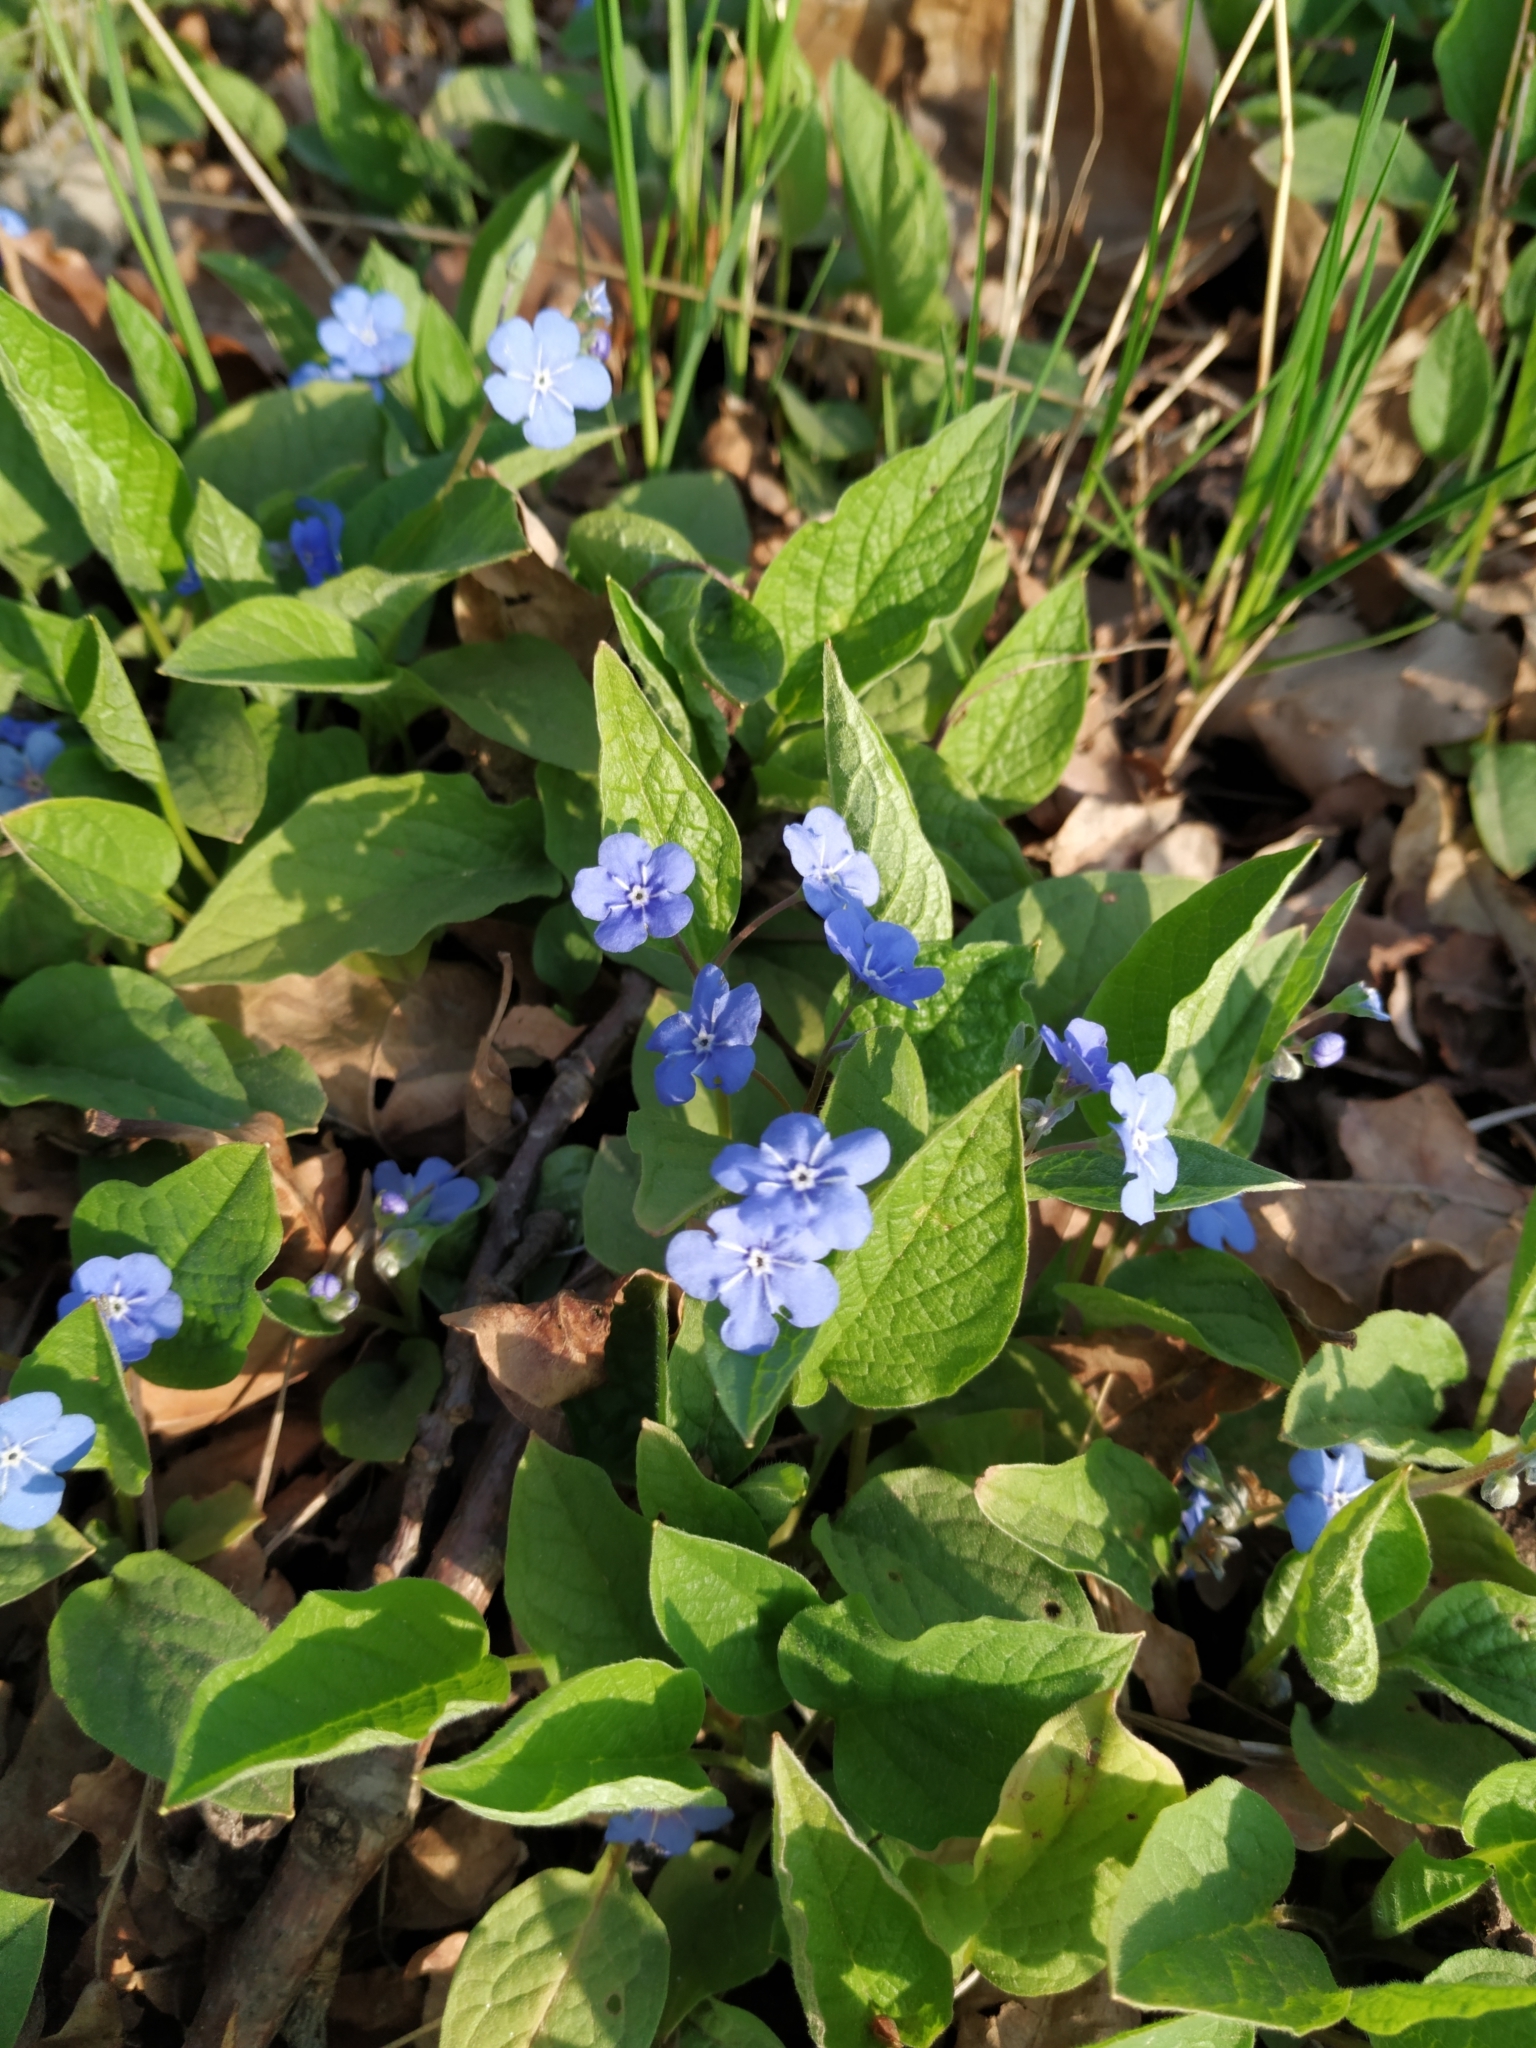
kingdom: Plantae
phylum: Tracheophyta
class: Magnoliopsida
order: Boraginales
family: Boraginaceae
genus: Omphalodes
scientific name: Omphalodes verna
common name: Blue-eyed-mary
